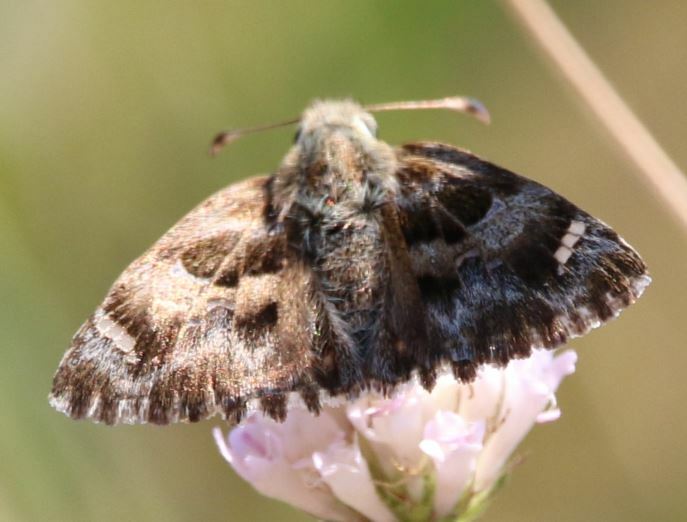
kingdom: Animalia
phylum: Arthropoda
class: Insecta
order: Lepidoptera
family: Hesperiidae
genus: Carcharodus
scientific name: Carcharodus alceae
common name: Mallow skipper
